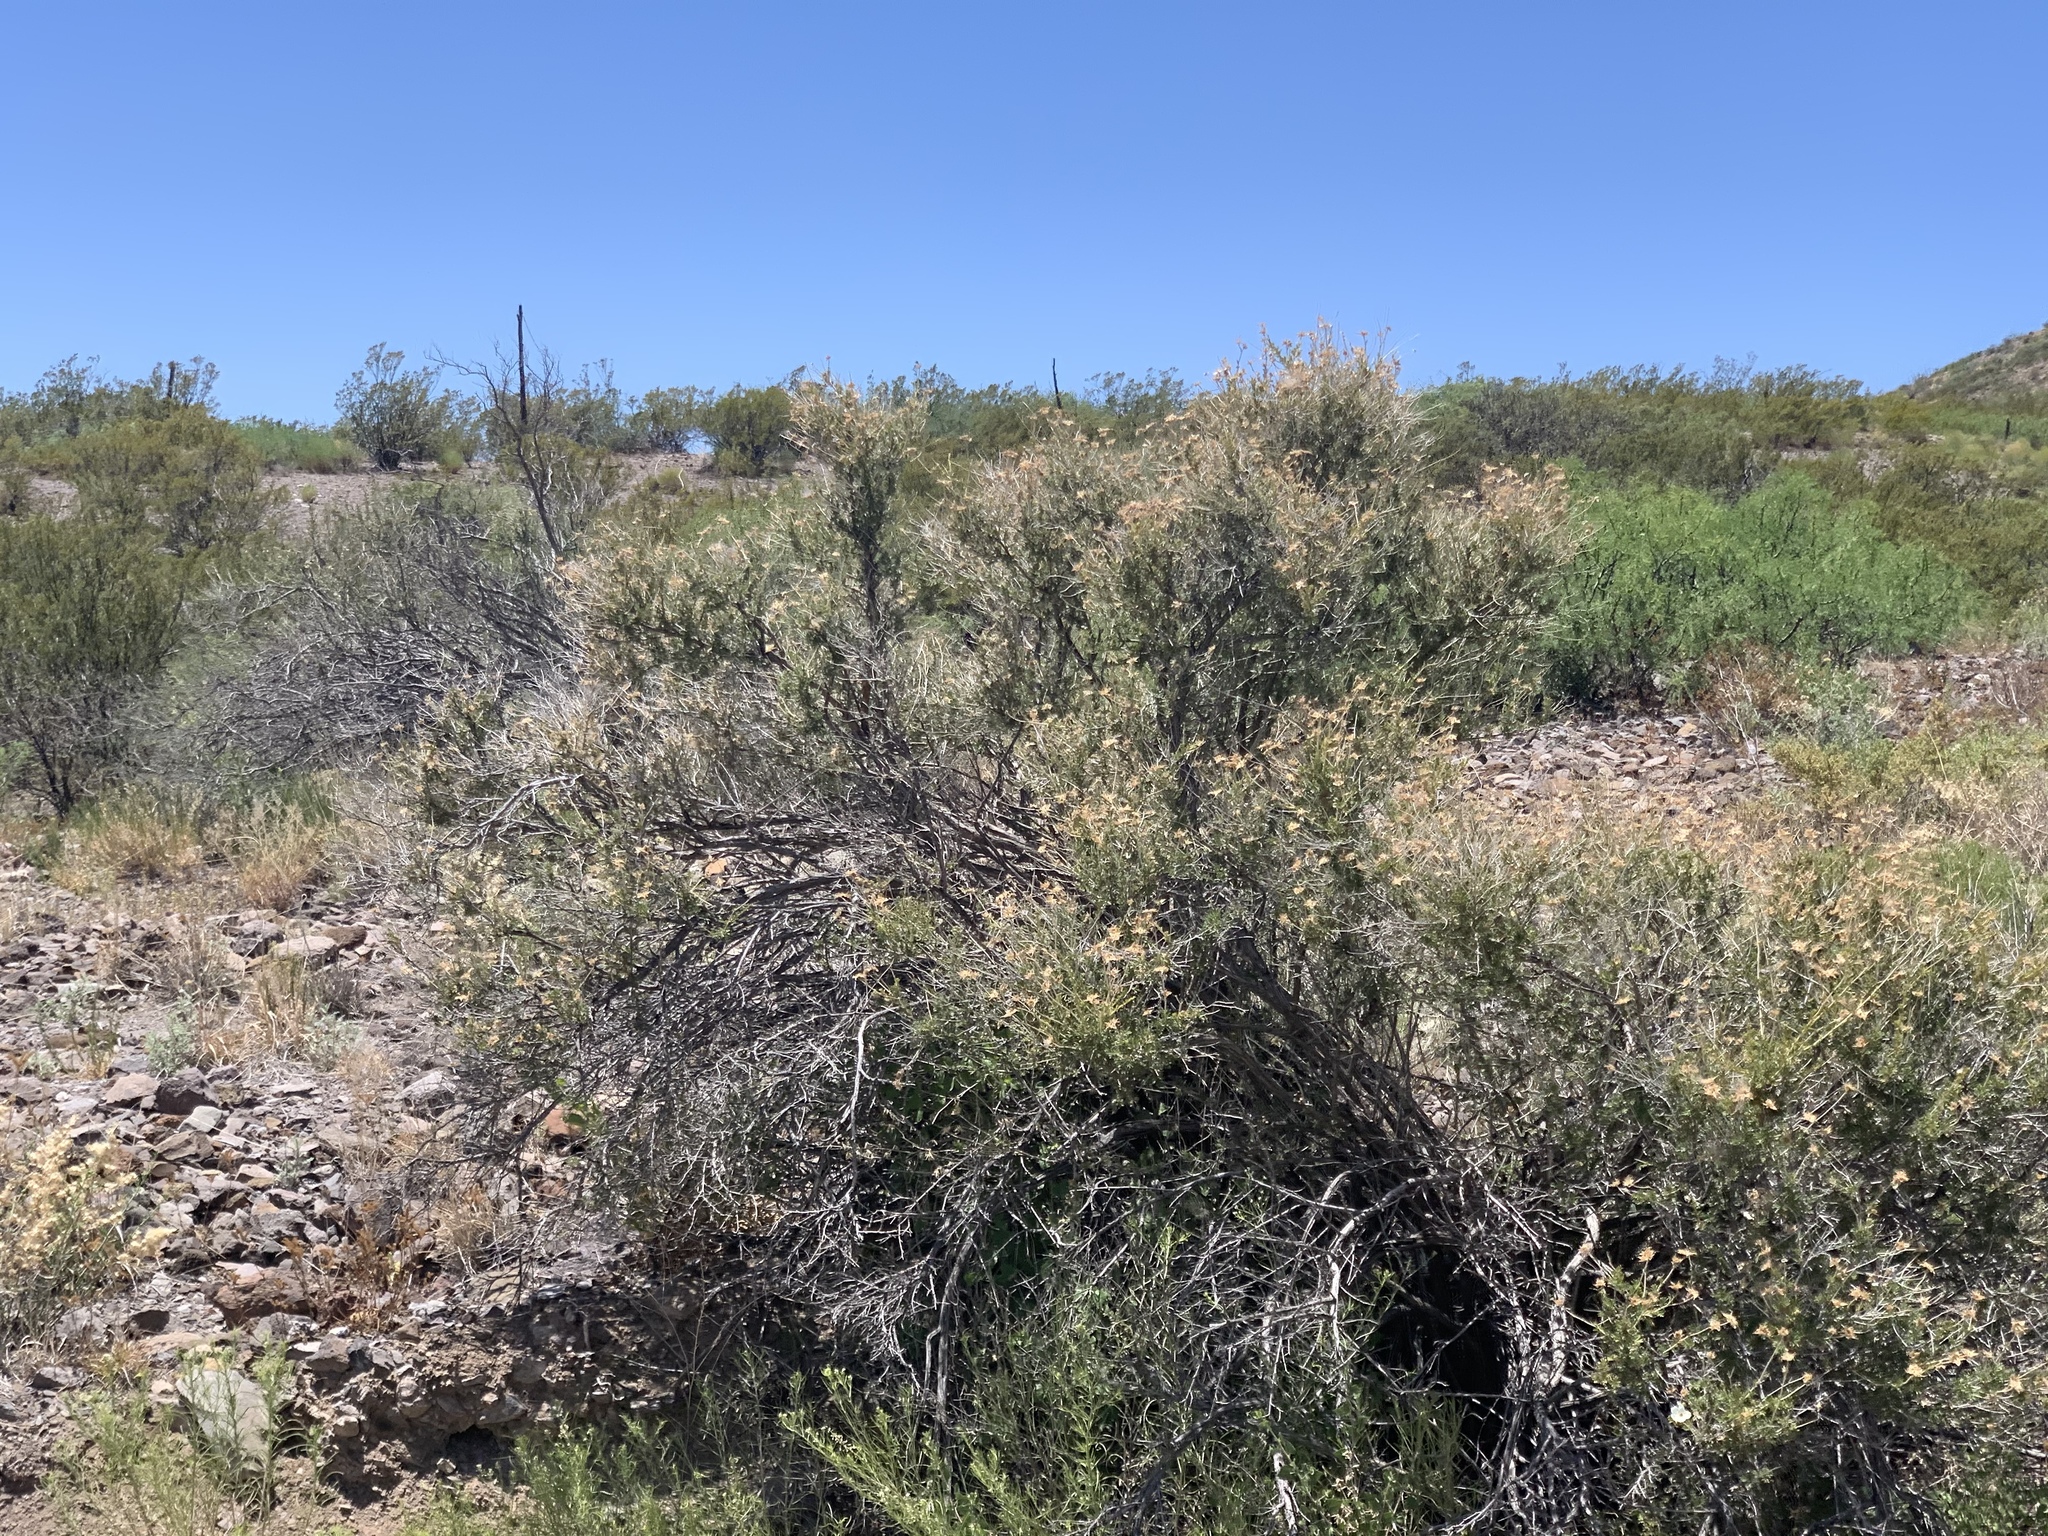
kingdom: Plantae
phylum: Tracheophyta
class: Magnoliopsida
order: Rosales
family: Rosaceae
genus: Fallugia
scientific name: Fallugia paradoxa
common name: Apache-plume
